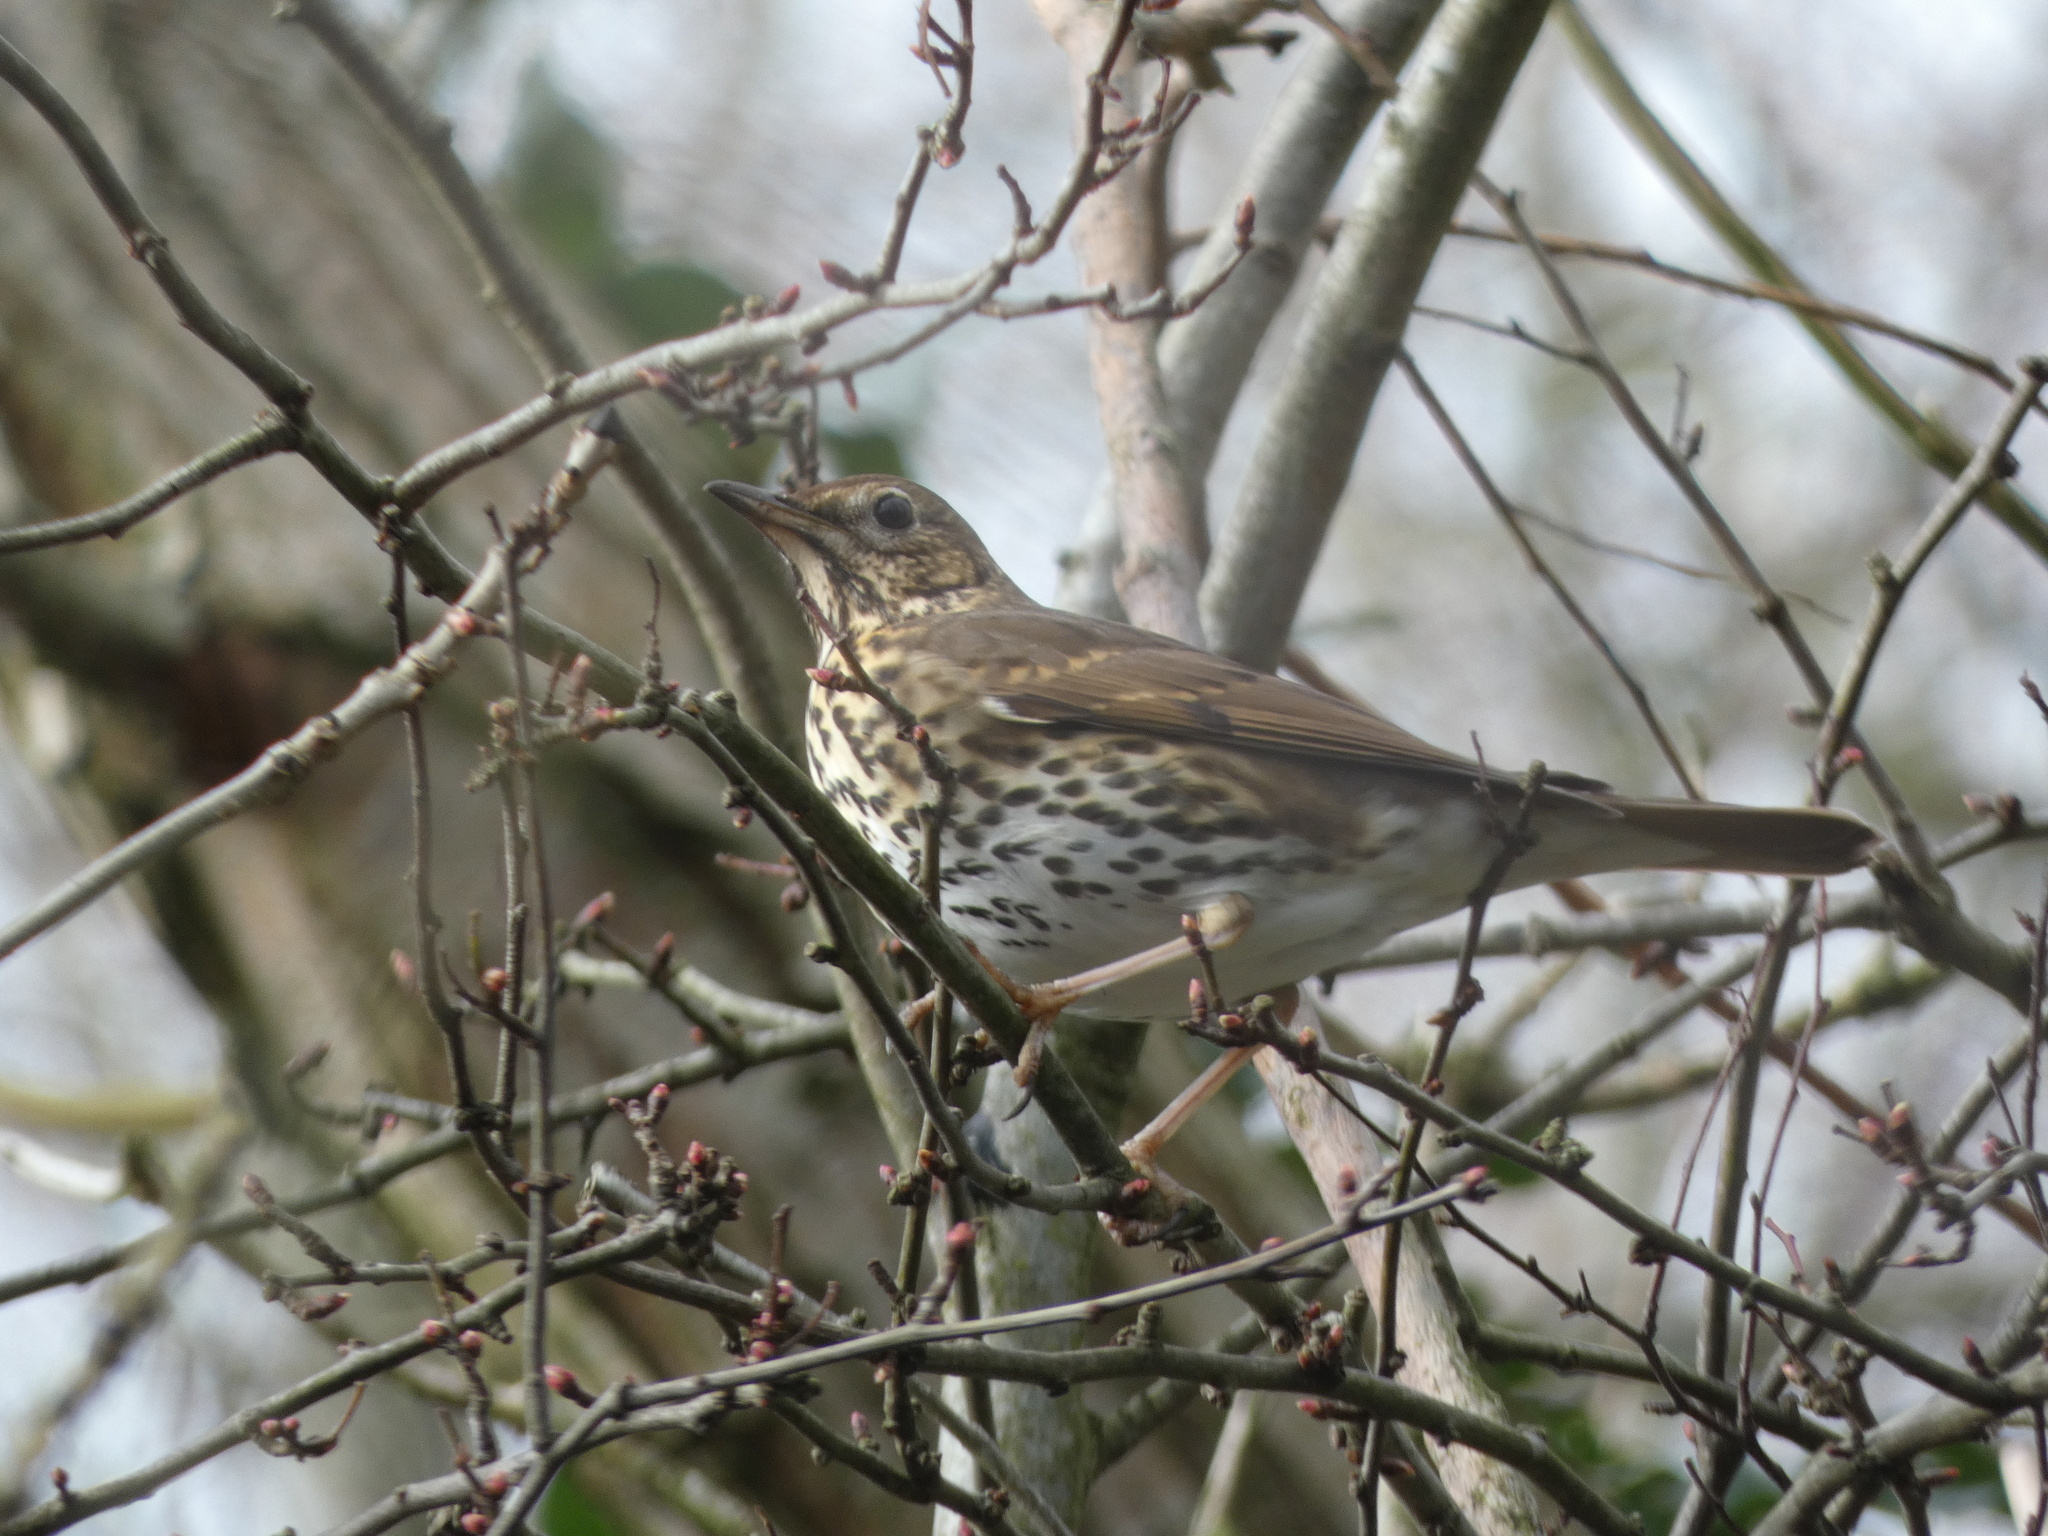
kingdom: Animalia
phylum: Chordata
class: Aves
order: Passeriformes
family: Turdidae
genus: Turdus
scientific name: Turdus philomelos
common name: Song thrush
